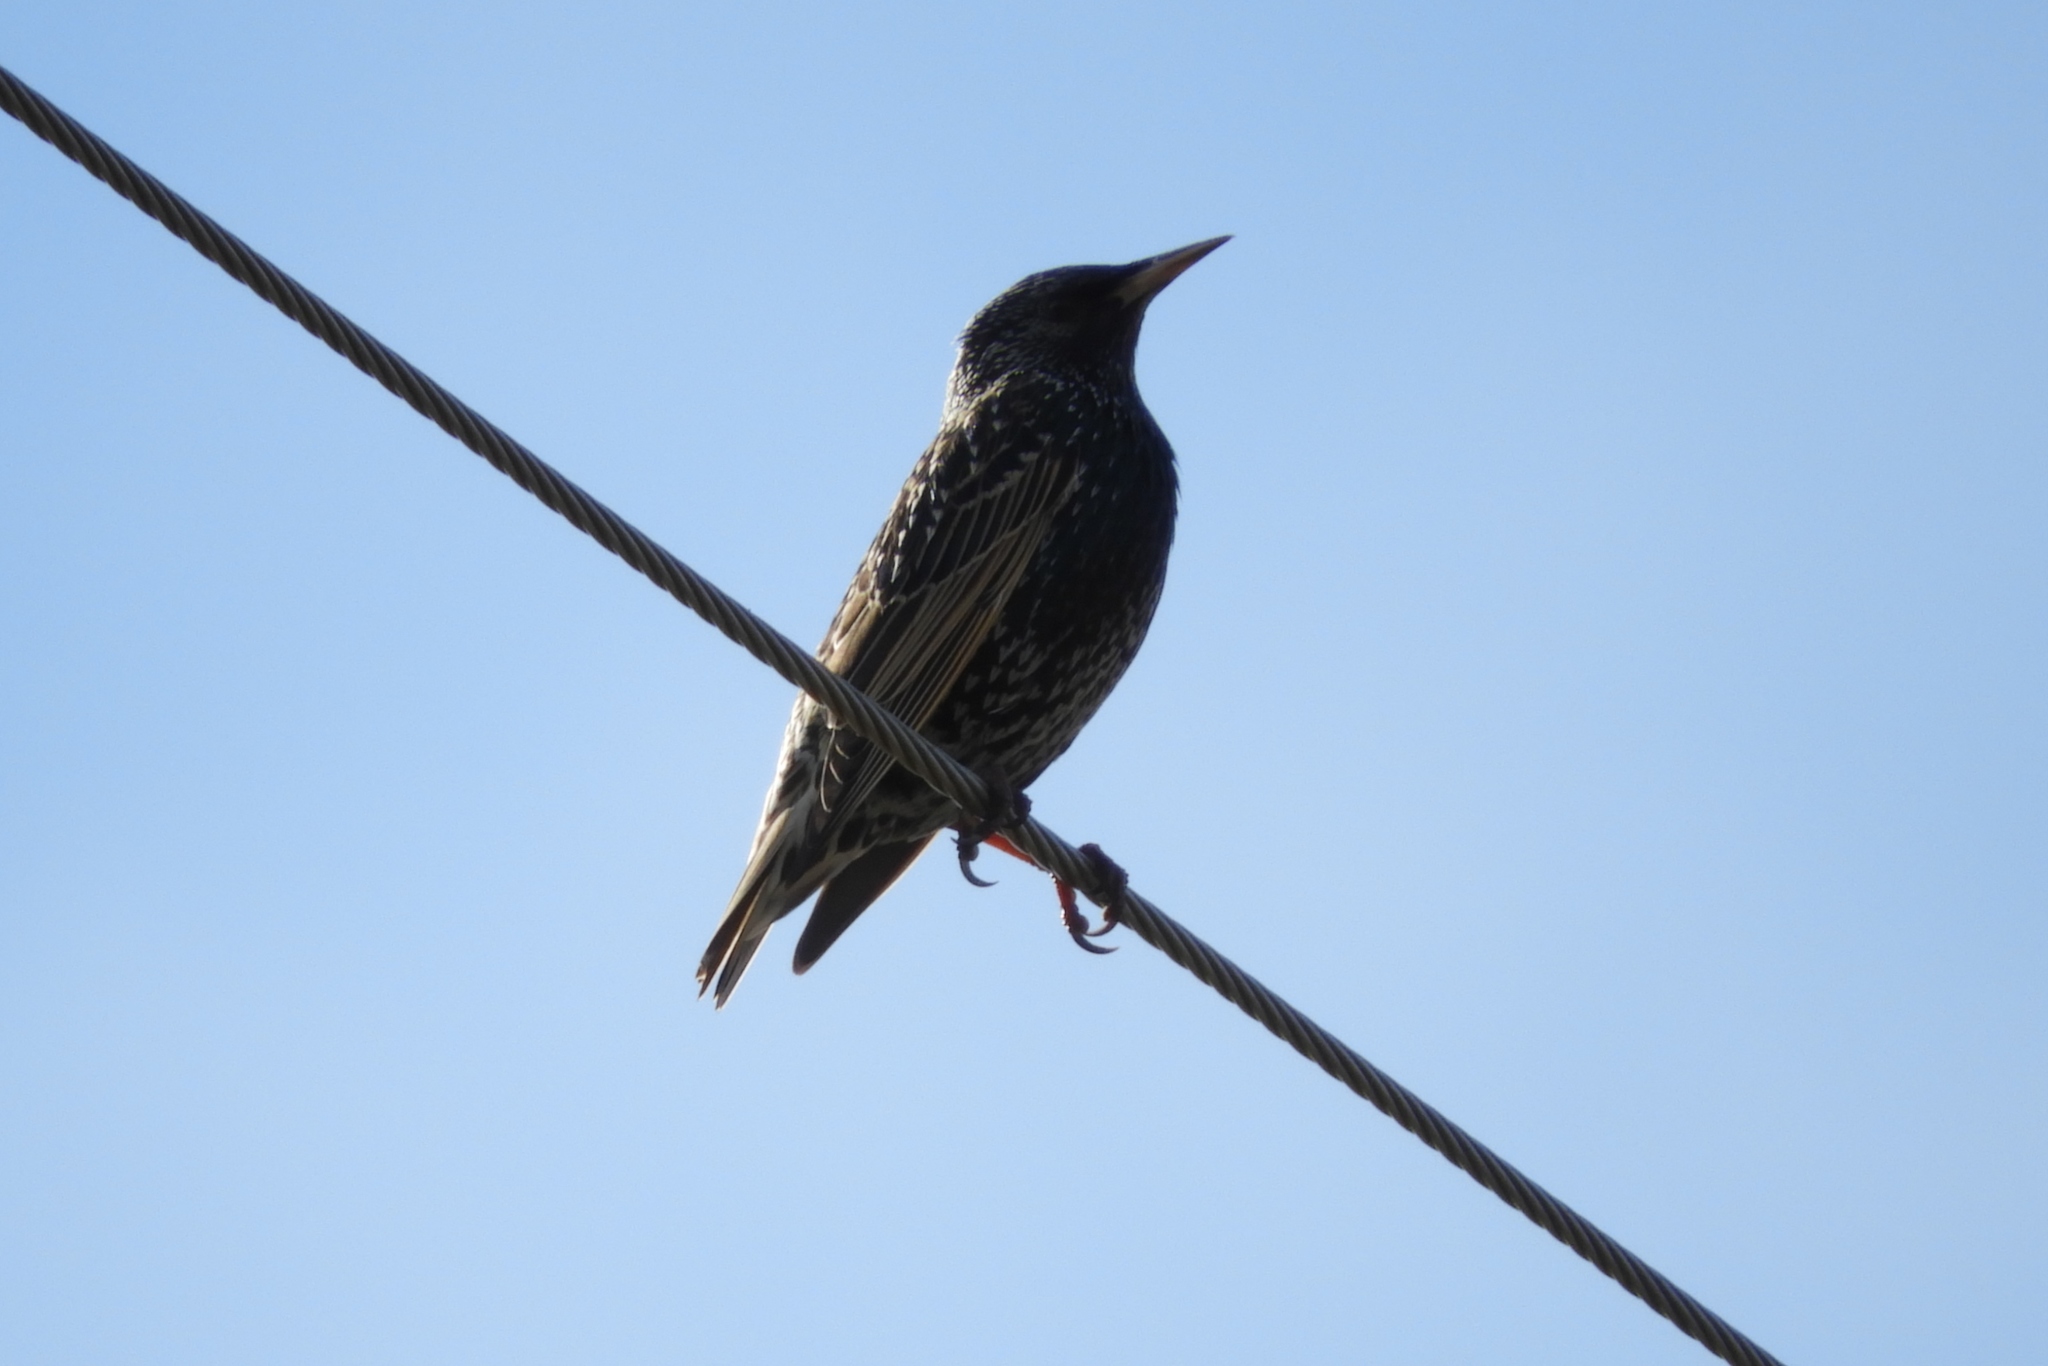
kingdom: Animalia
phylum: Chordata
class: Aves
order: Passeriformes
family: Sturnidae
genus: Sturnus
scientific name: Sturnus vulgaris
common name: Common starling
